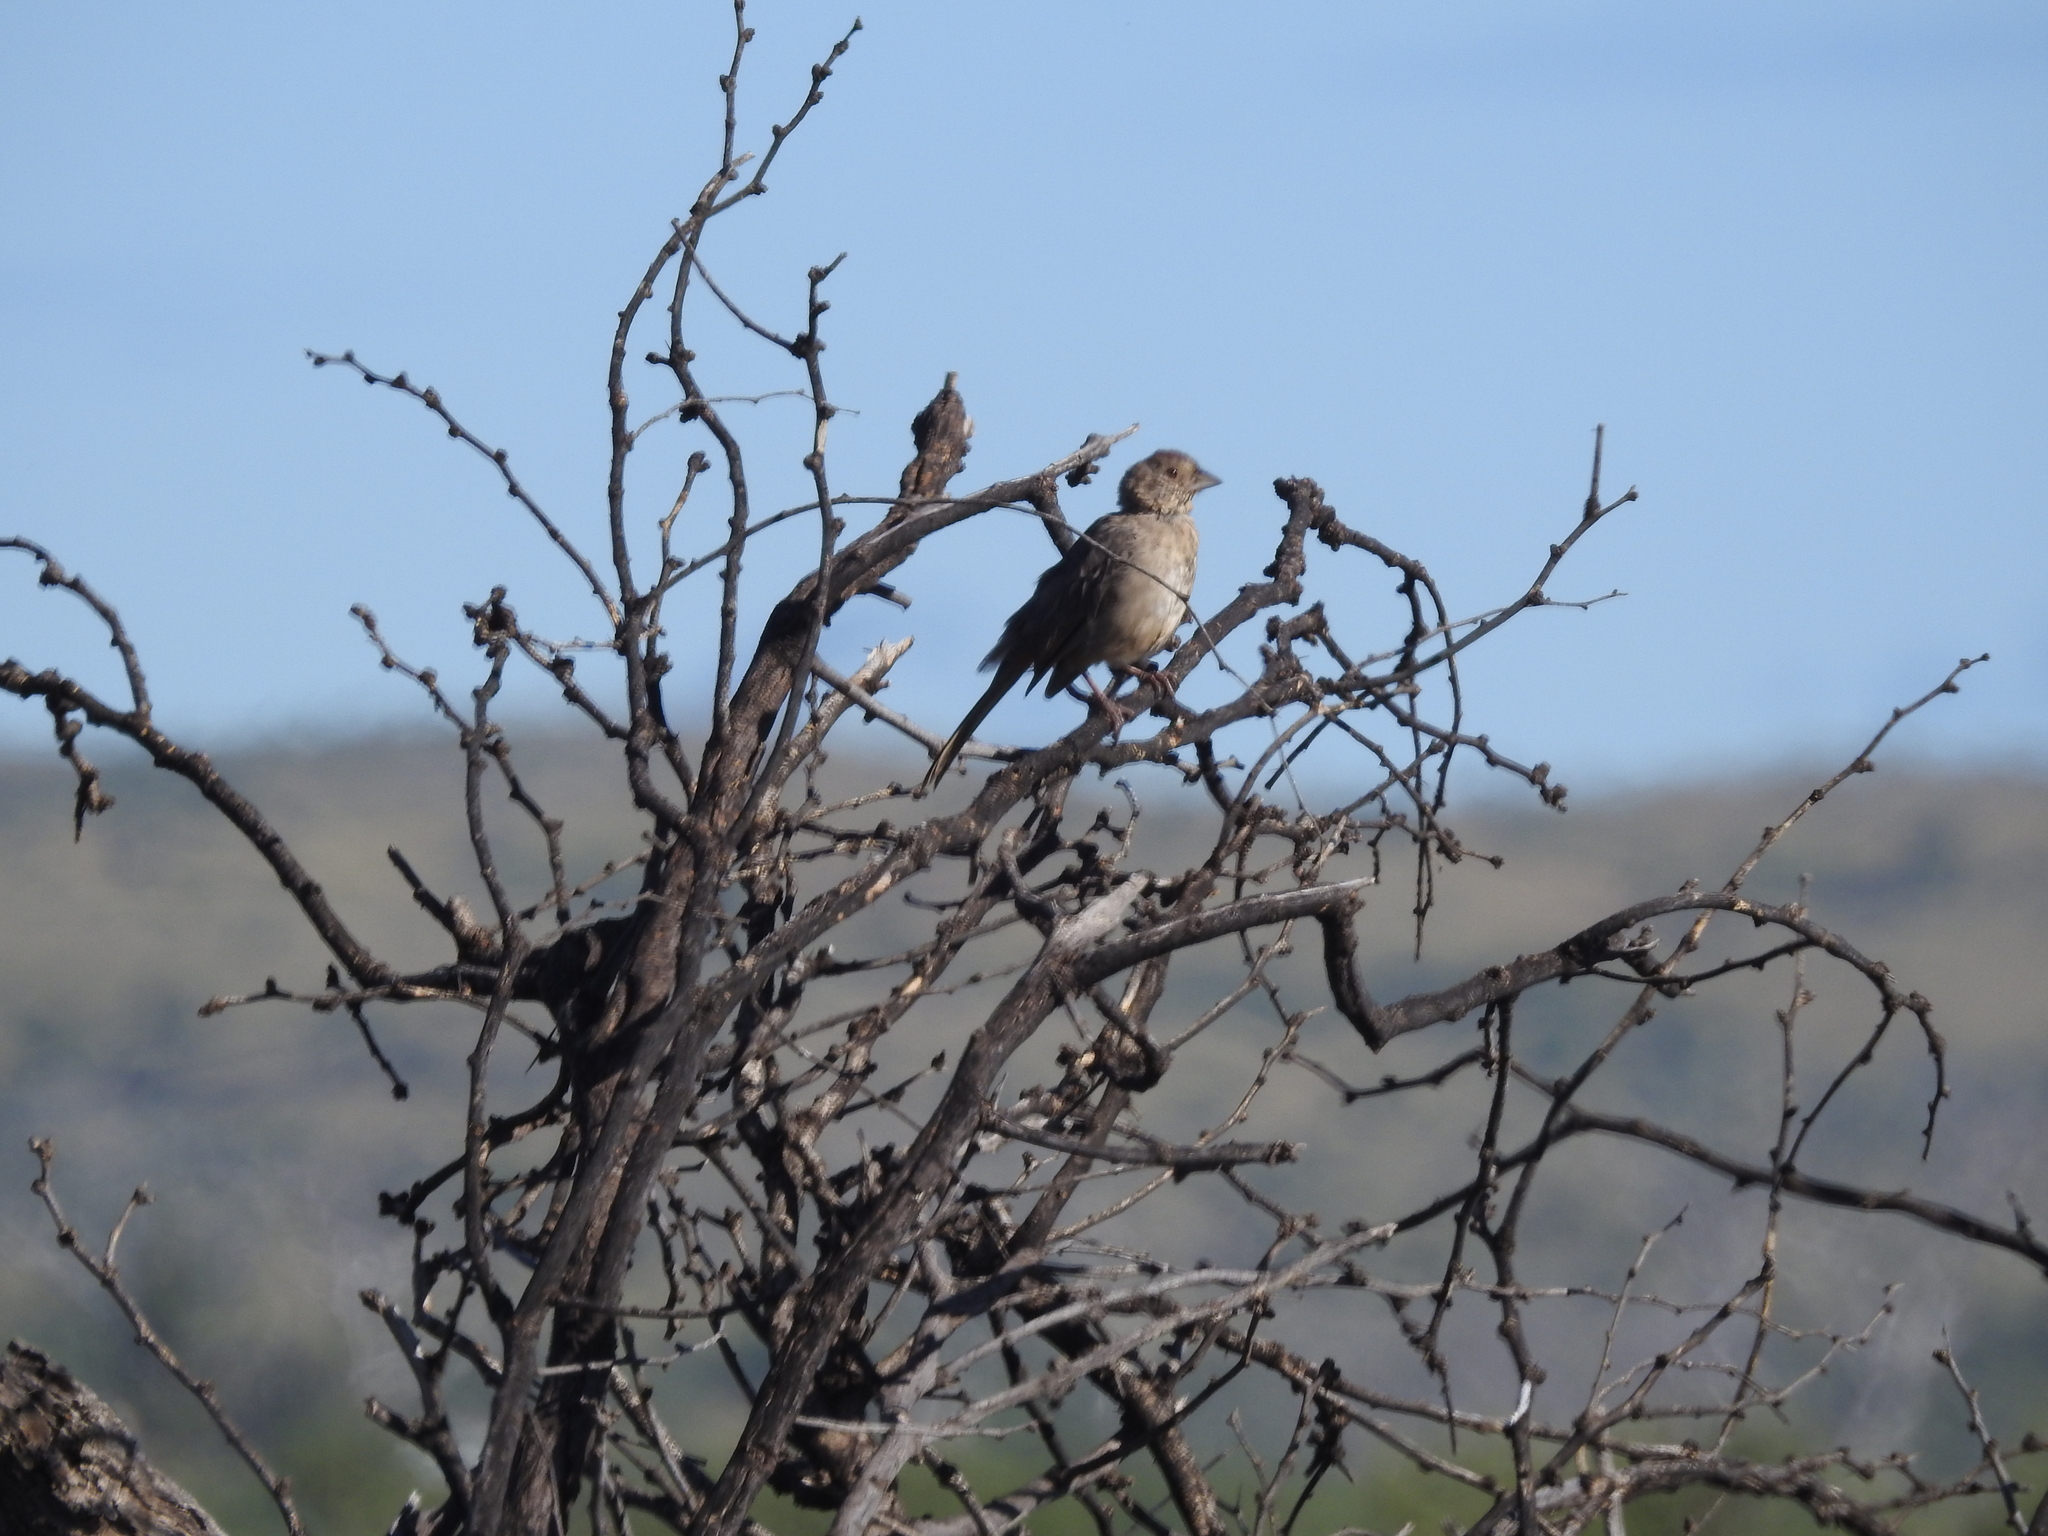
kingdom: Animalia
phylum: Chordata
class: Aves
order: Passeriformes
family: Passerellidae
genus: Melozone
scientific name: Melozone fusca
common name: Canyon towhee
